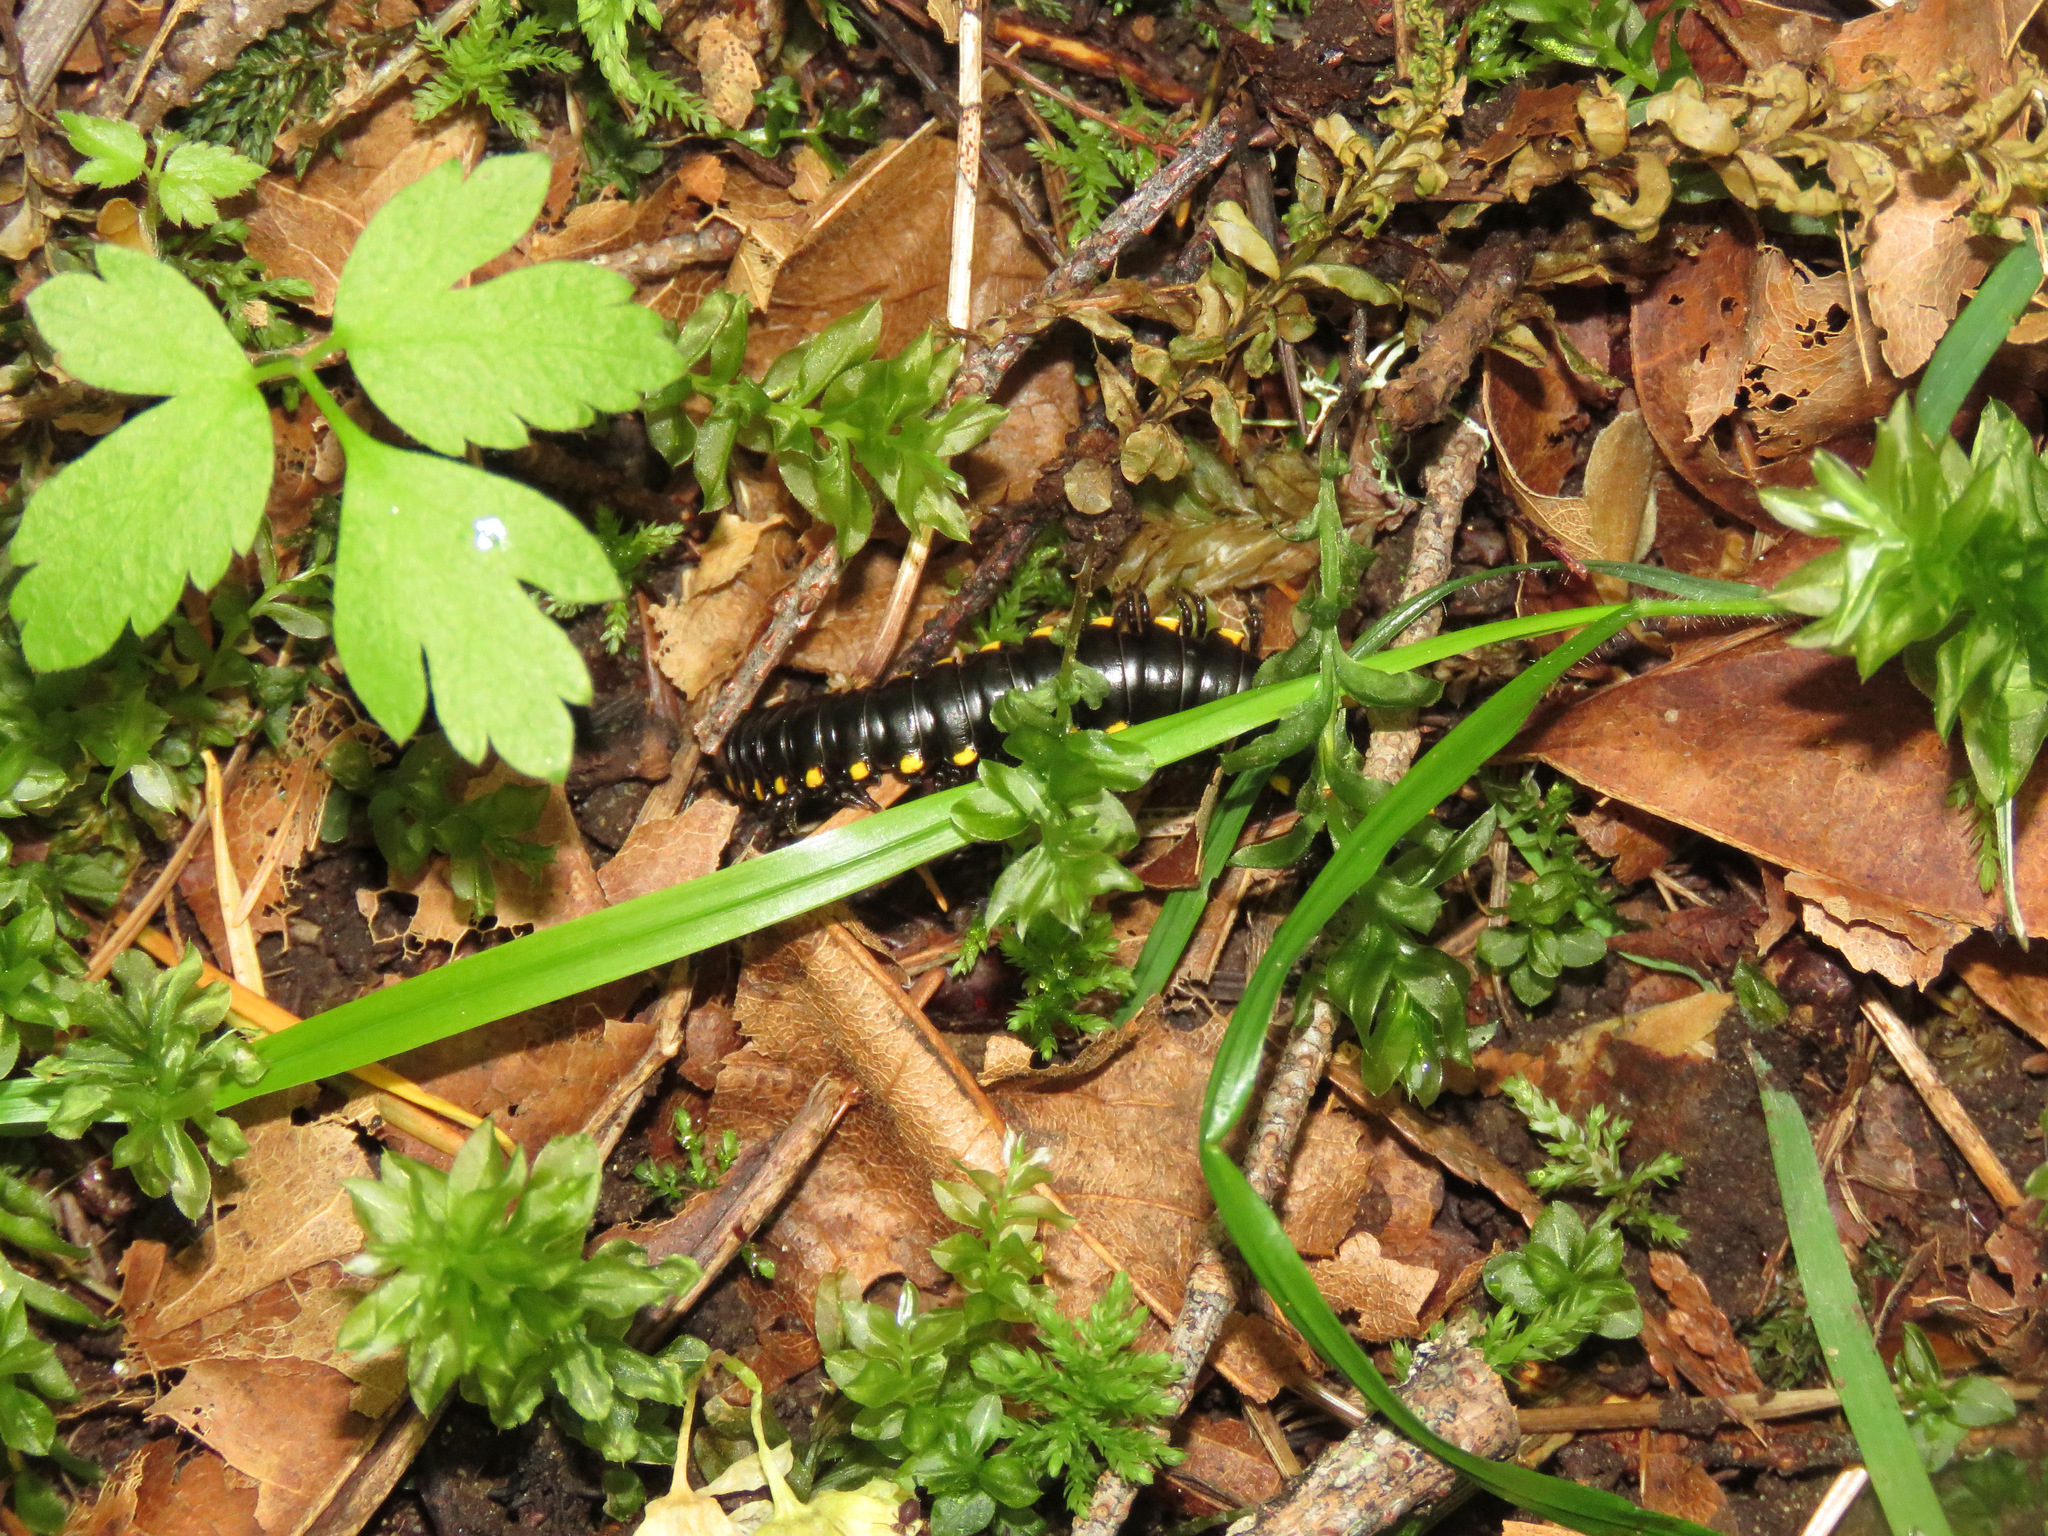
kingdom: Animalia
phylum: Arthropoda
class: Diplopoda
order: Polydesmida
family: Xystodesmidae
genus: Harpaphe
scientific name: Harpaphe haydeniana
